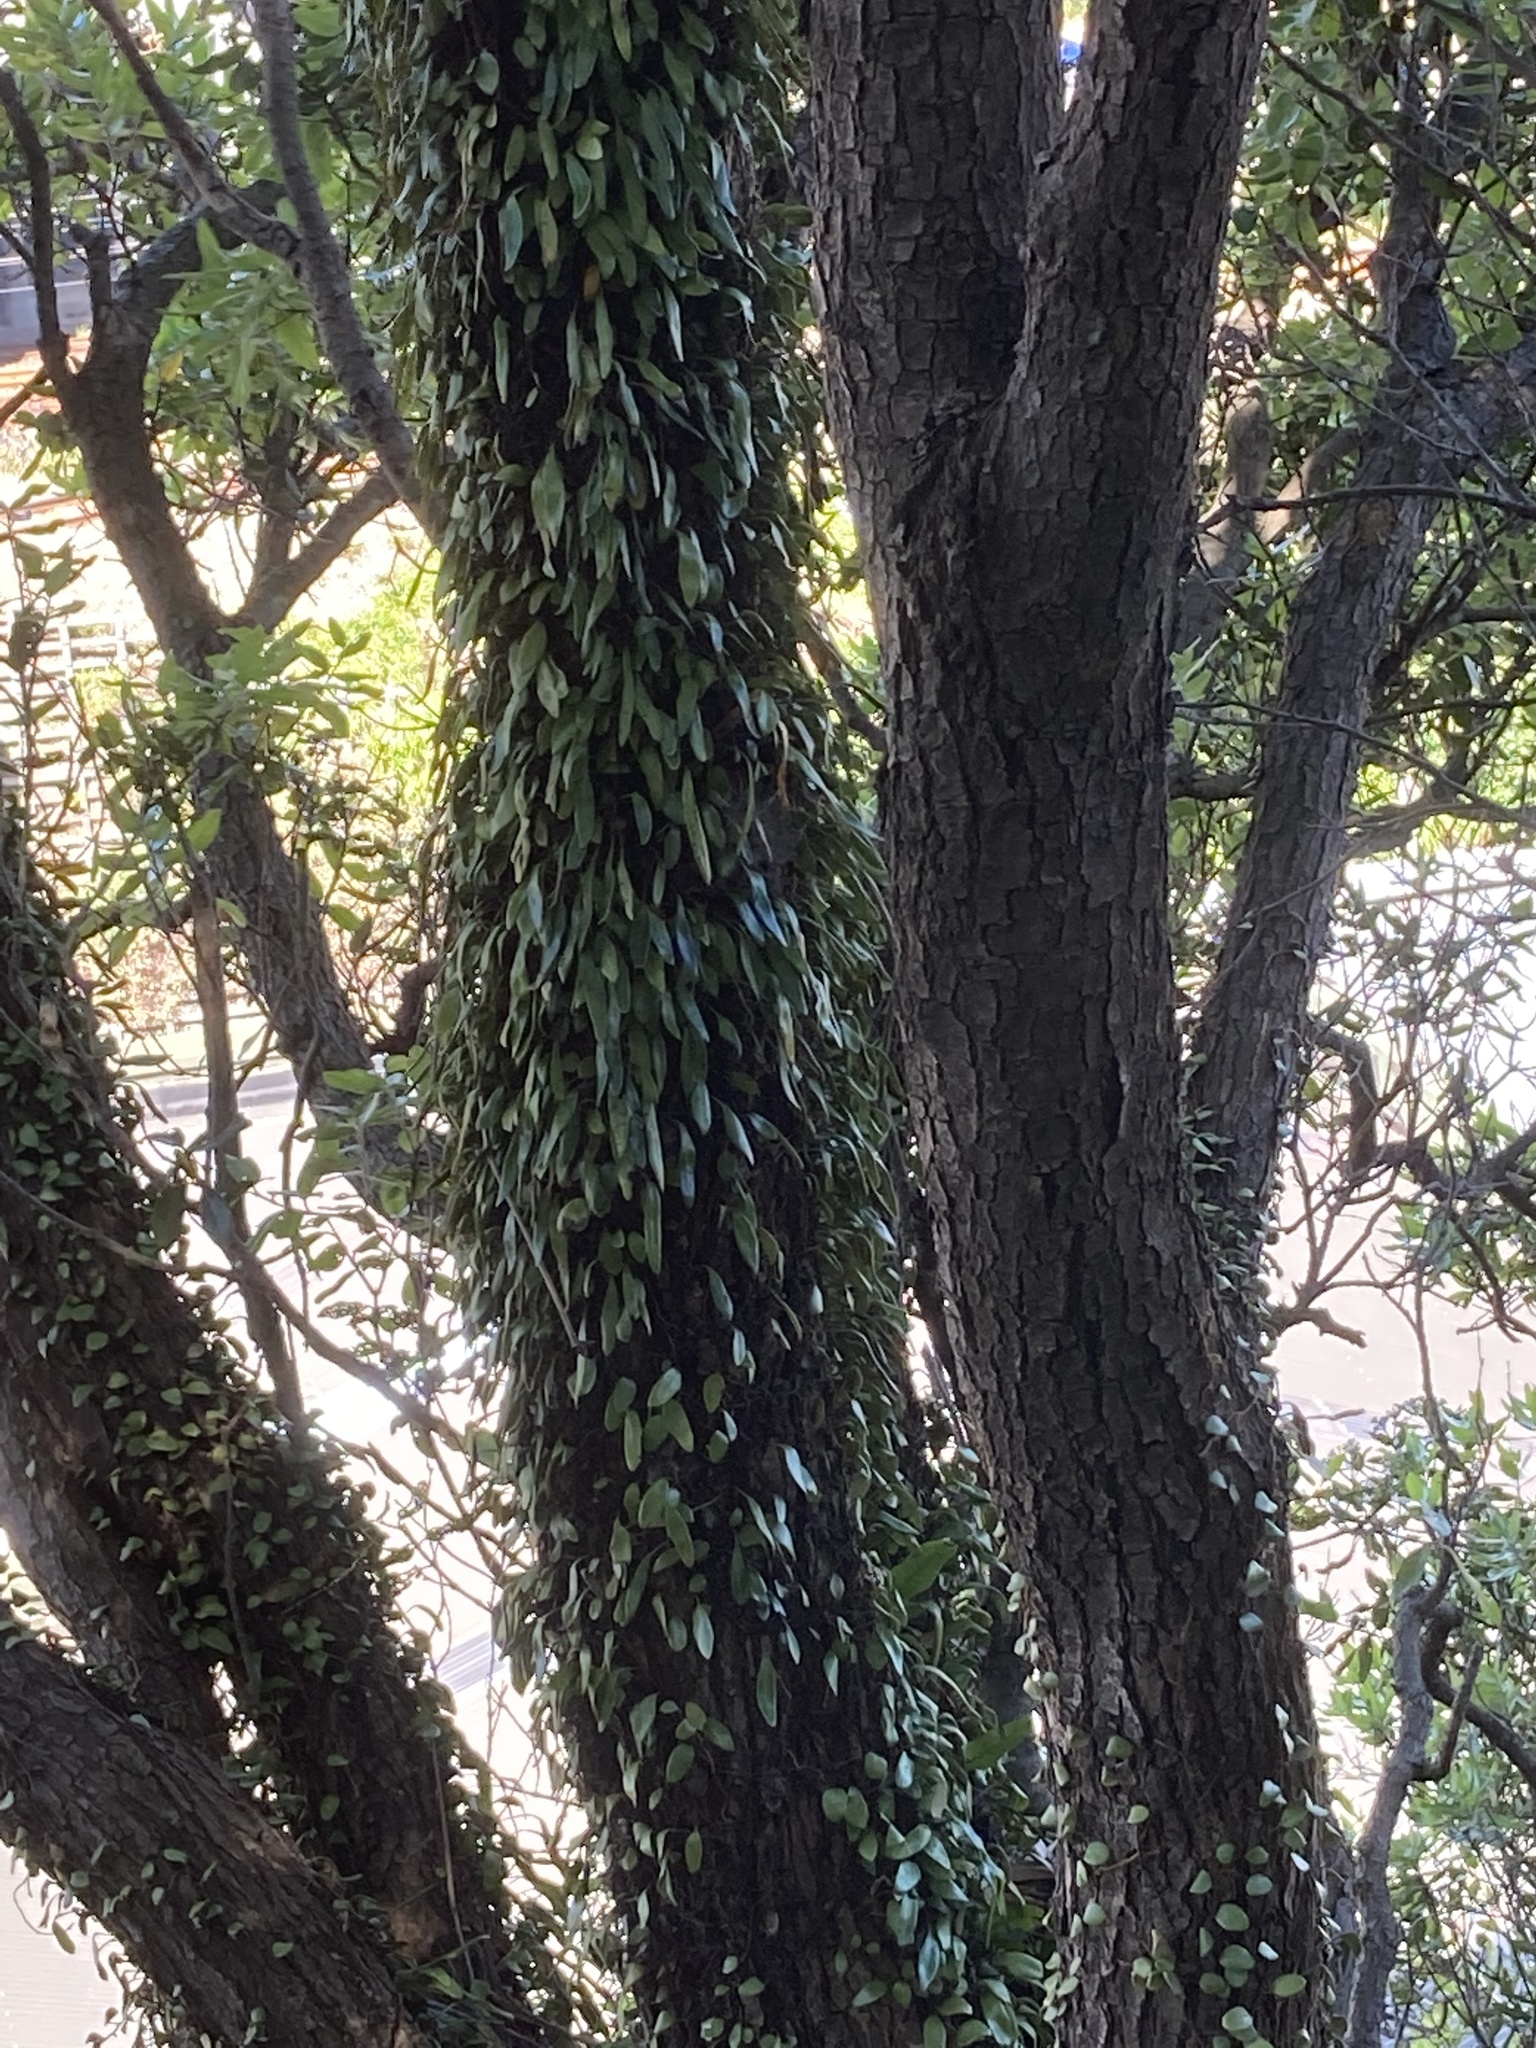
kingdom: Plantae
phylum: Tracheophyta
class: Polypodiopsida
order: Polypodiales
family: Polypodiaceae
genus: Pyrrosia
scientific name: Pyrrosia eleagnifolia
